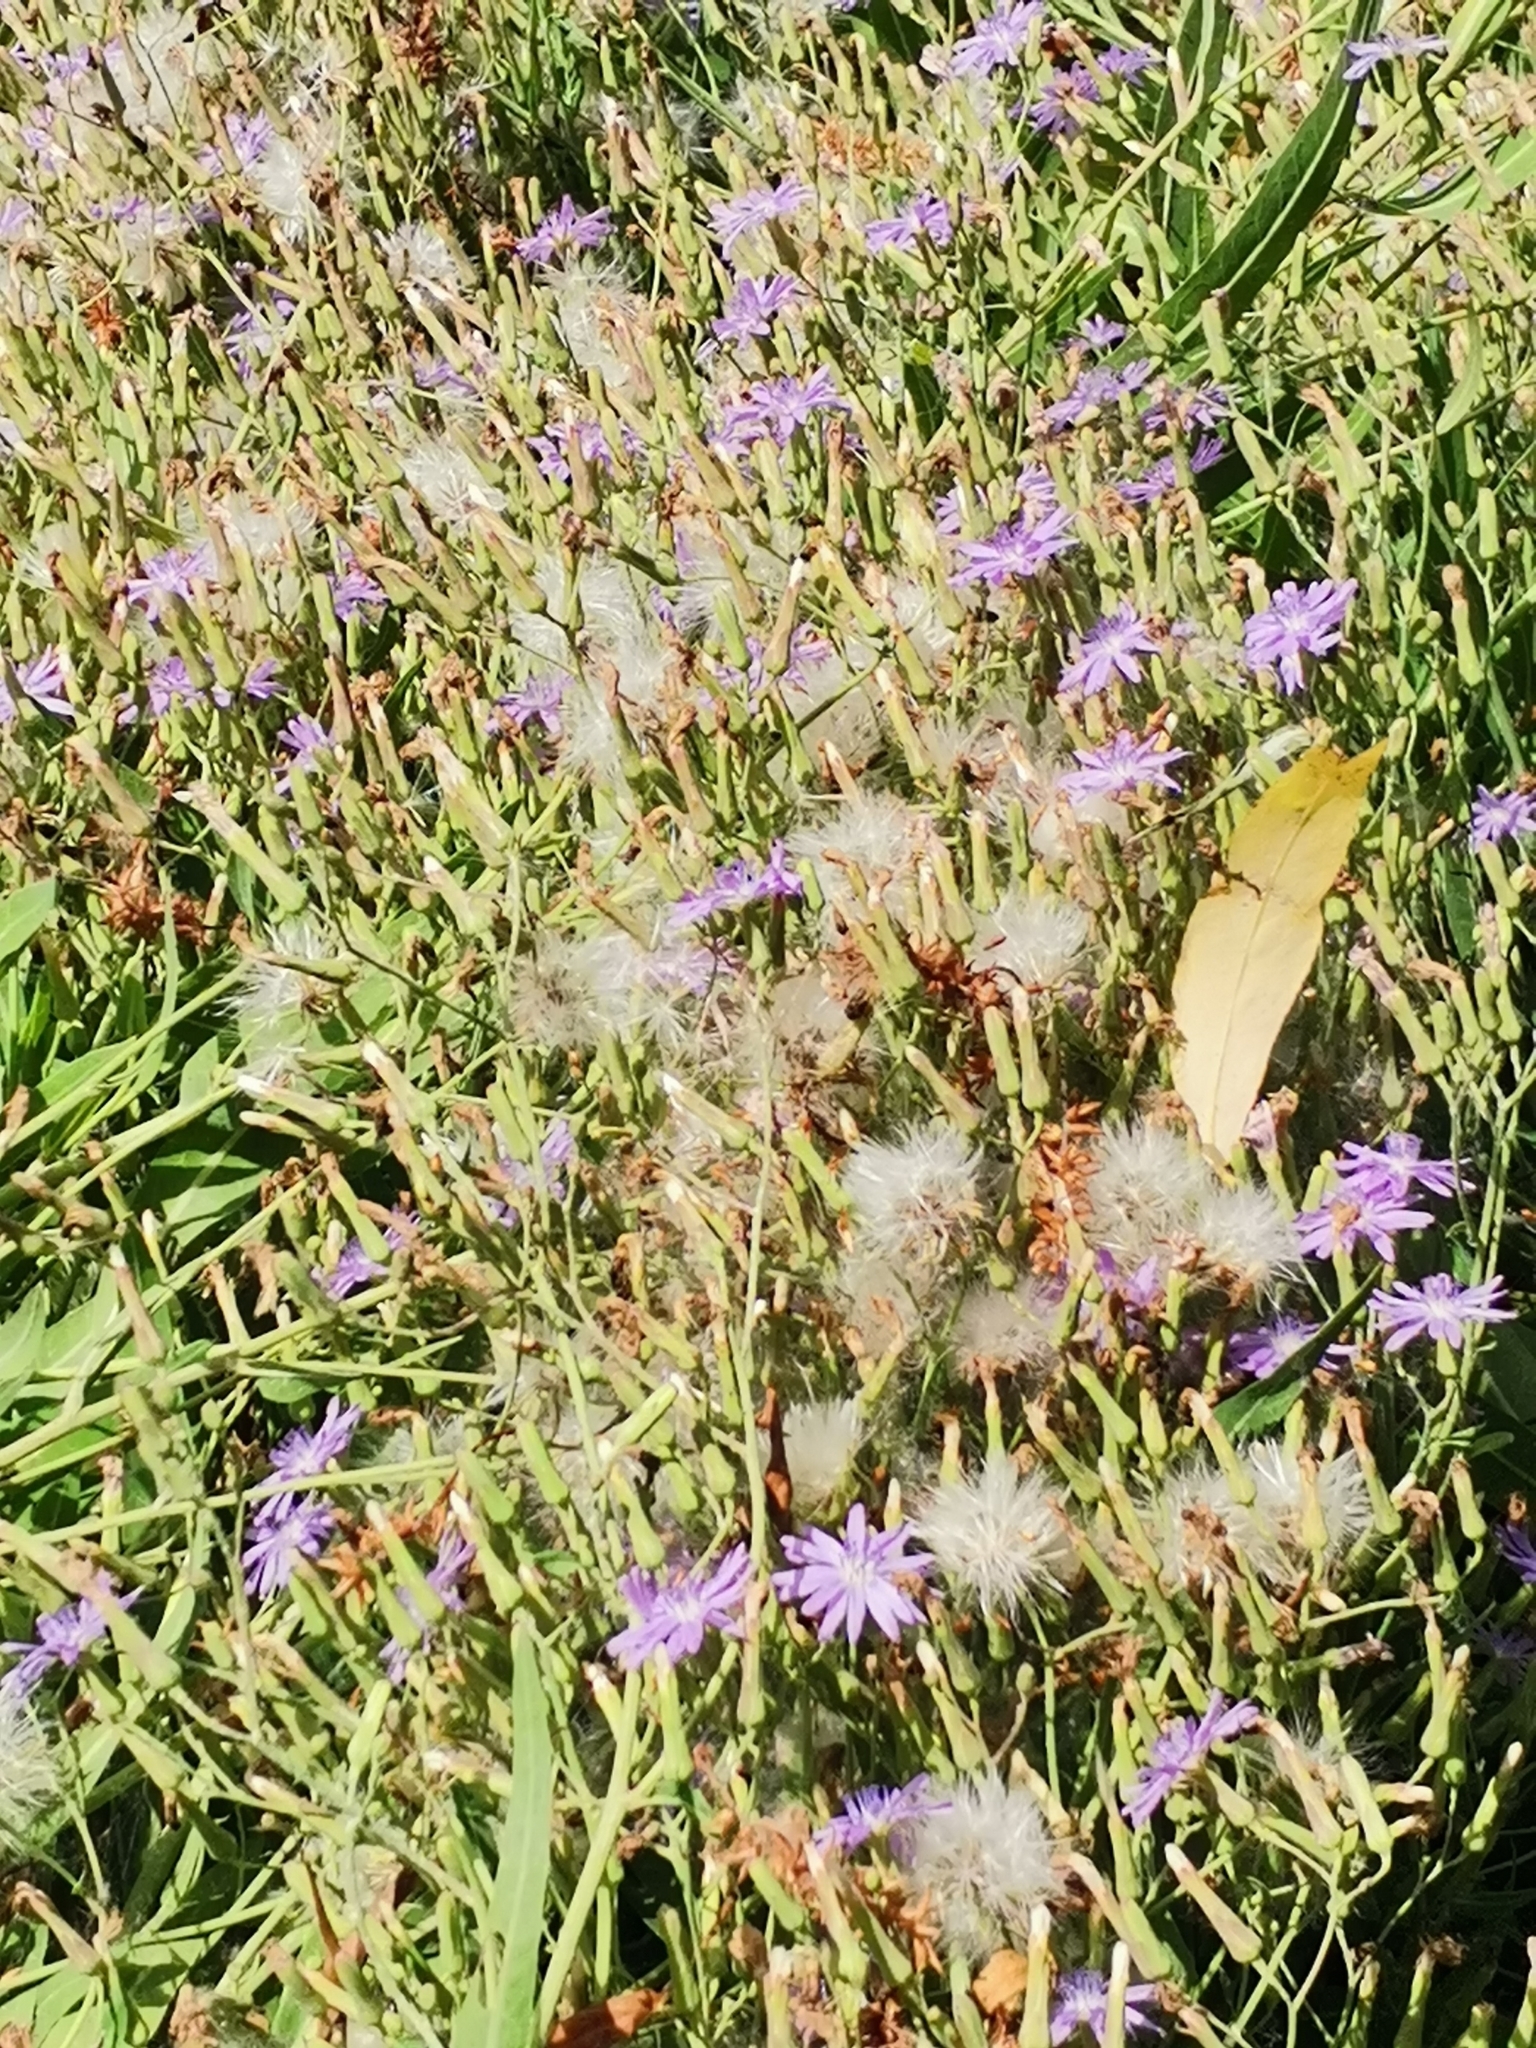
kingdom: Plantae
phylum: Tracheophyta
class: Magnoliopsida
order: Asterales
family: Asteraceae
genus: Lactuca
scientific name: Lactuca tatarica
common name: Blue lettuce
